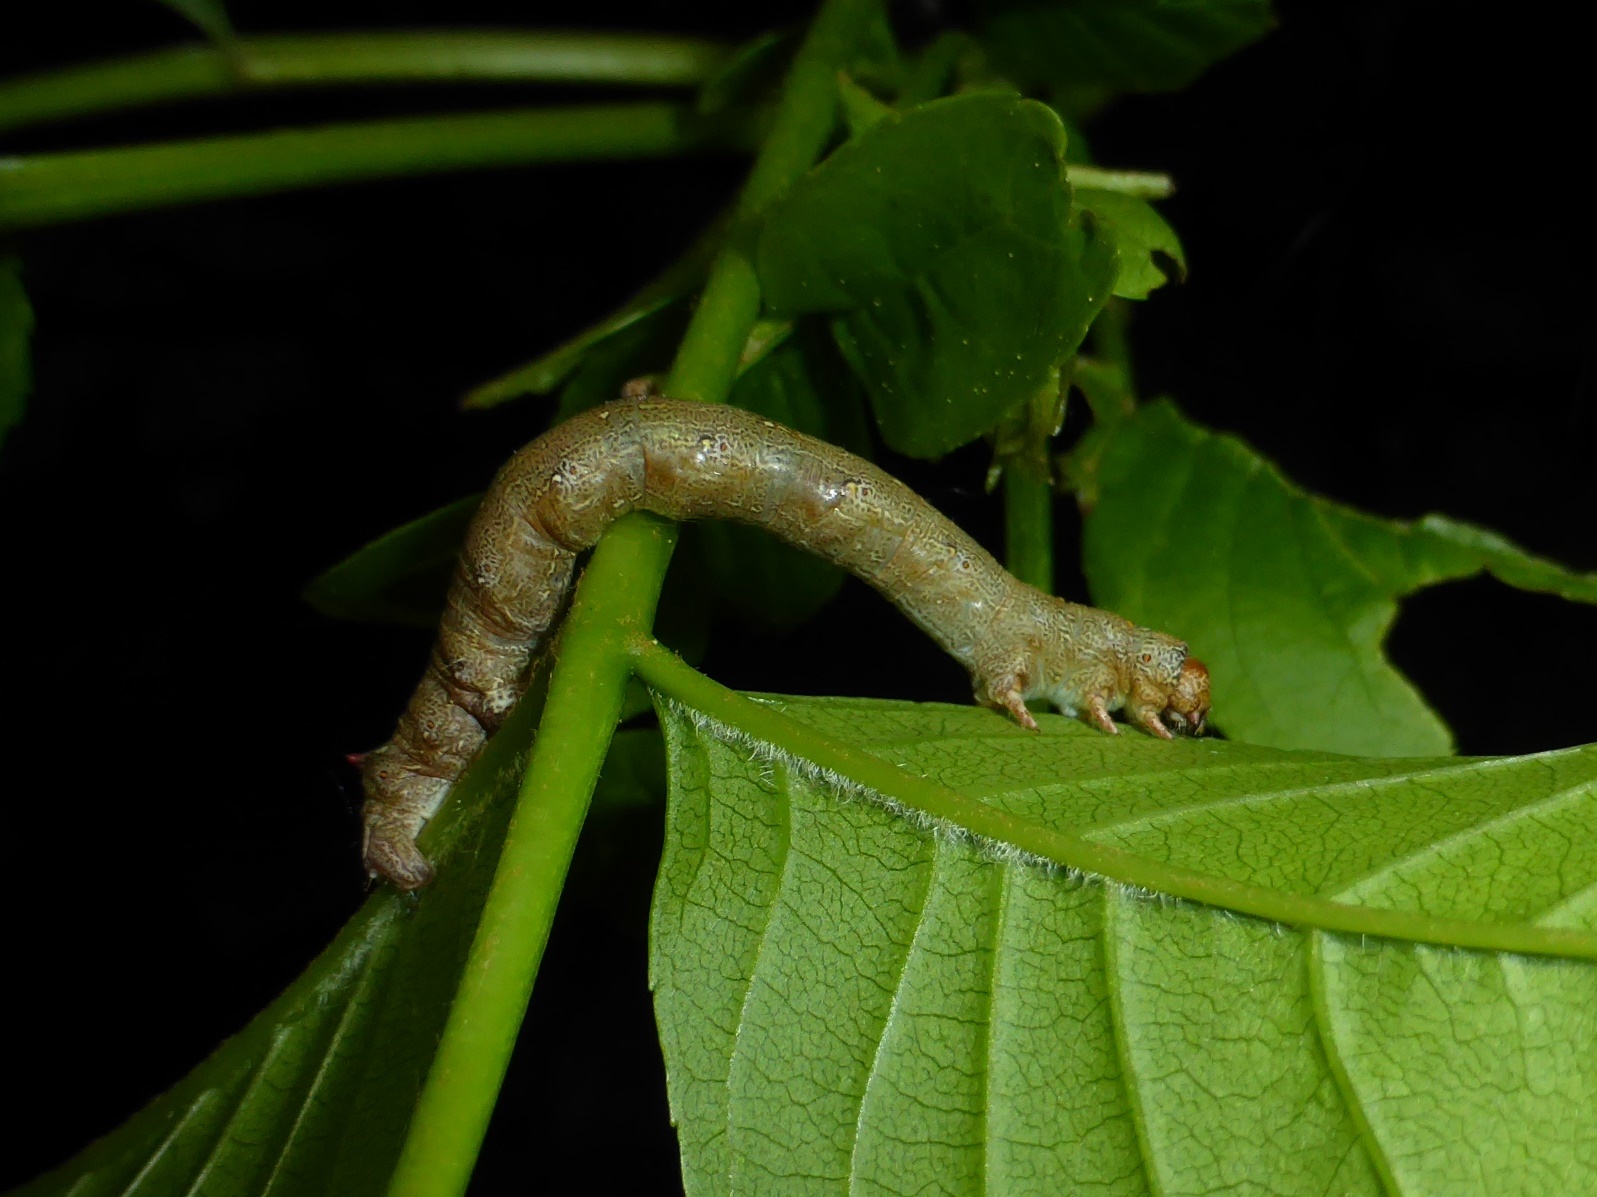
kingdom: Animalia
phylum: Arthropoda
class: Insecta
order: Lepidoptera
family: Geometridae
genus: Colotois
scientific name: Colotois pennaria
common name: Feathered thorn
